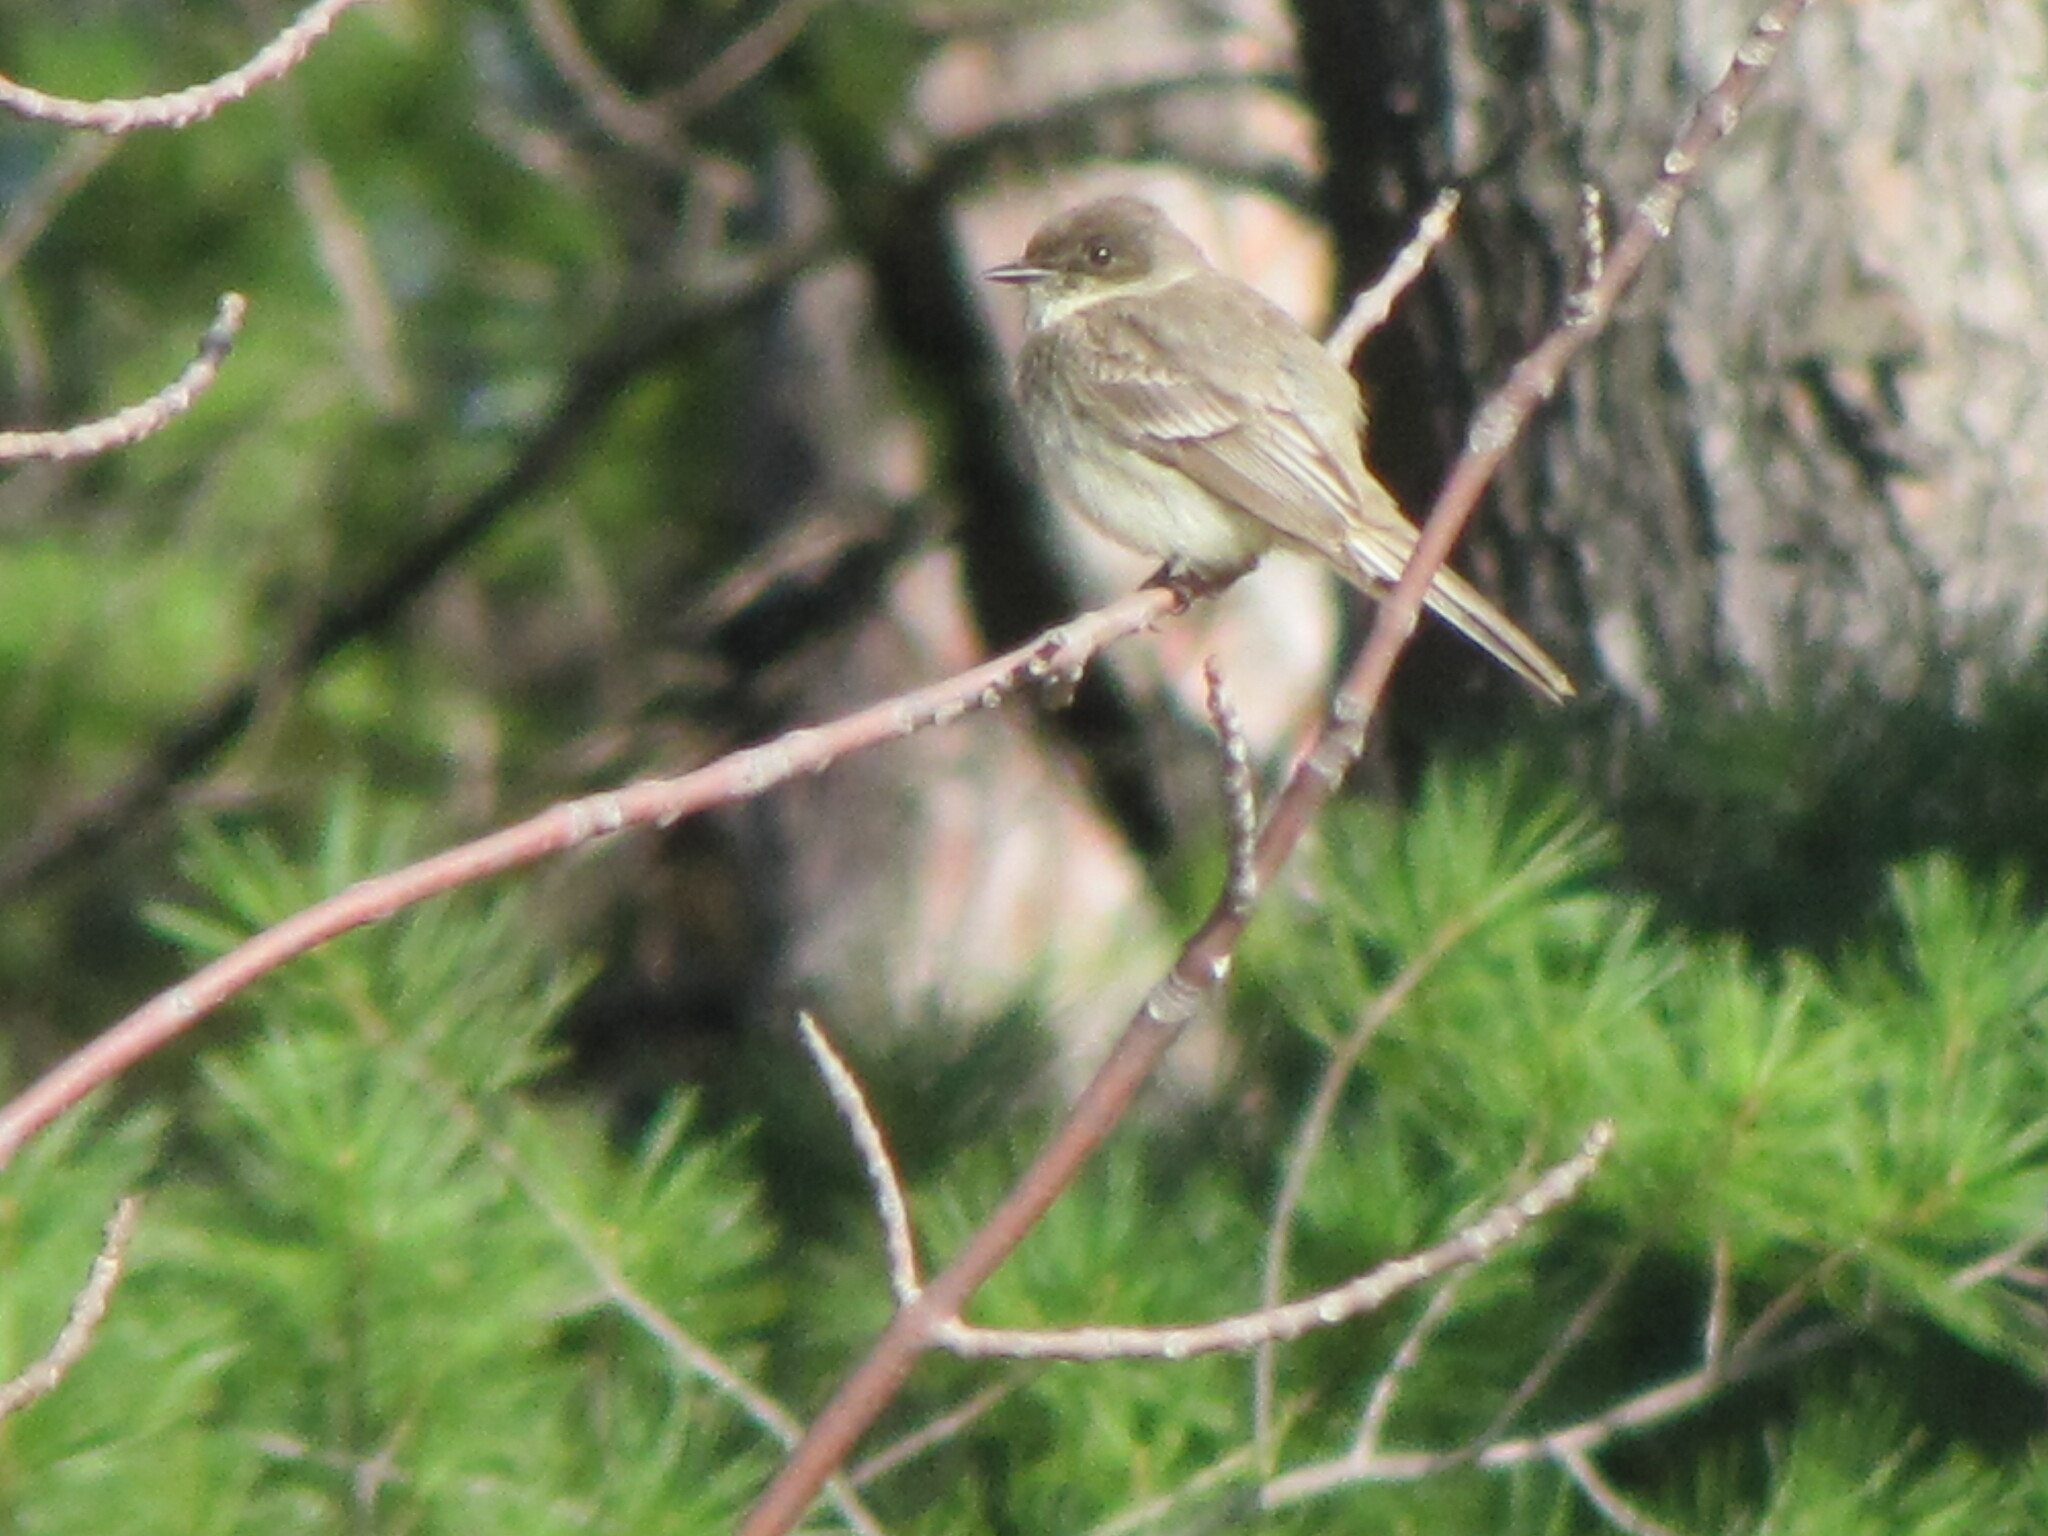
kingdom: Animalia
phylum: Chordata
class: Aves
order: Passeriformes
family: Tyrannidae
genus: Sayornis
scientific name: Sayornis phoebe
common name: Eastern phoebe
